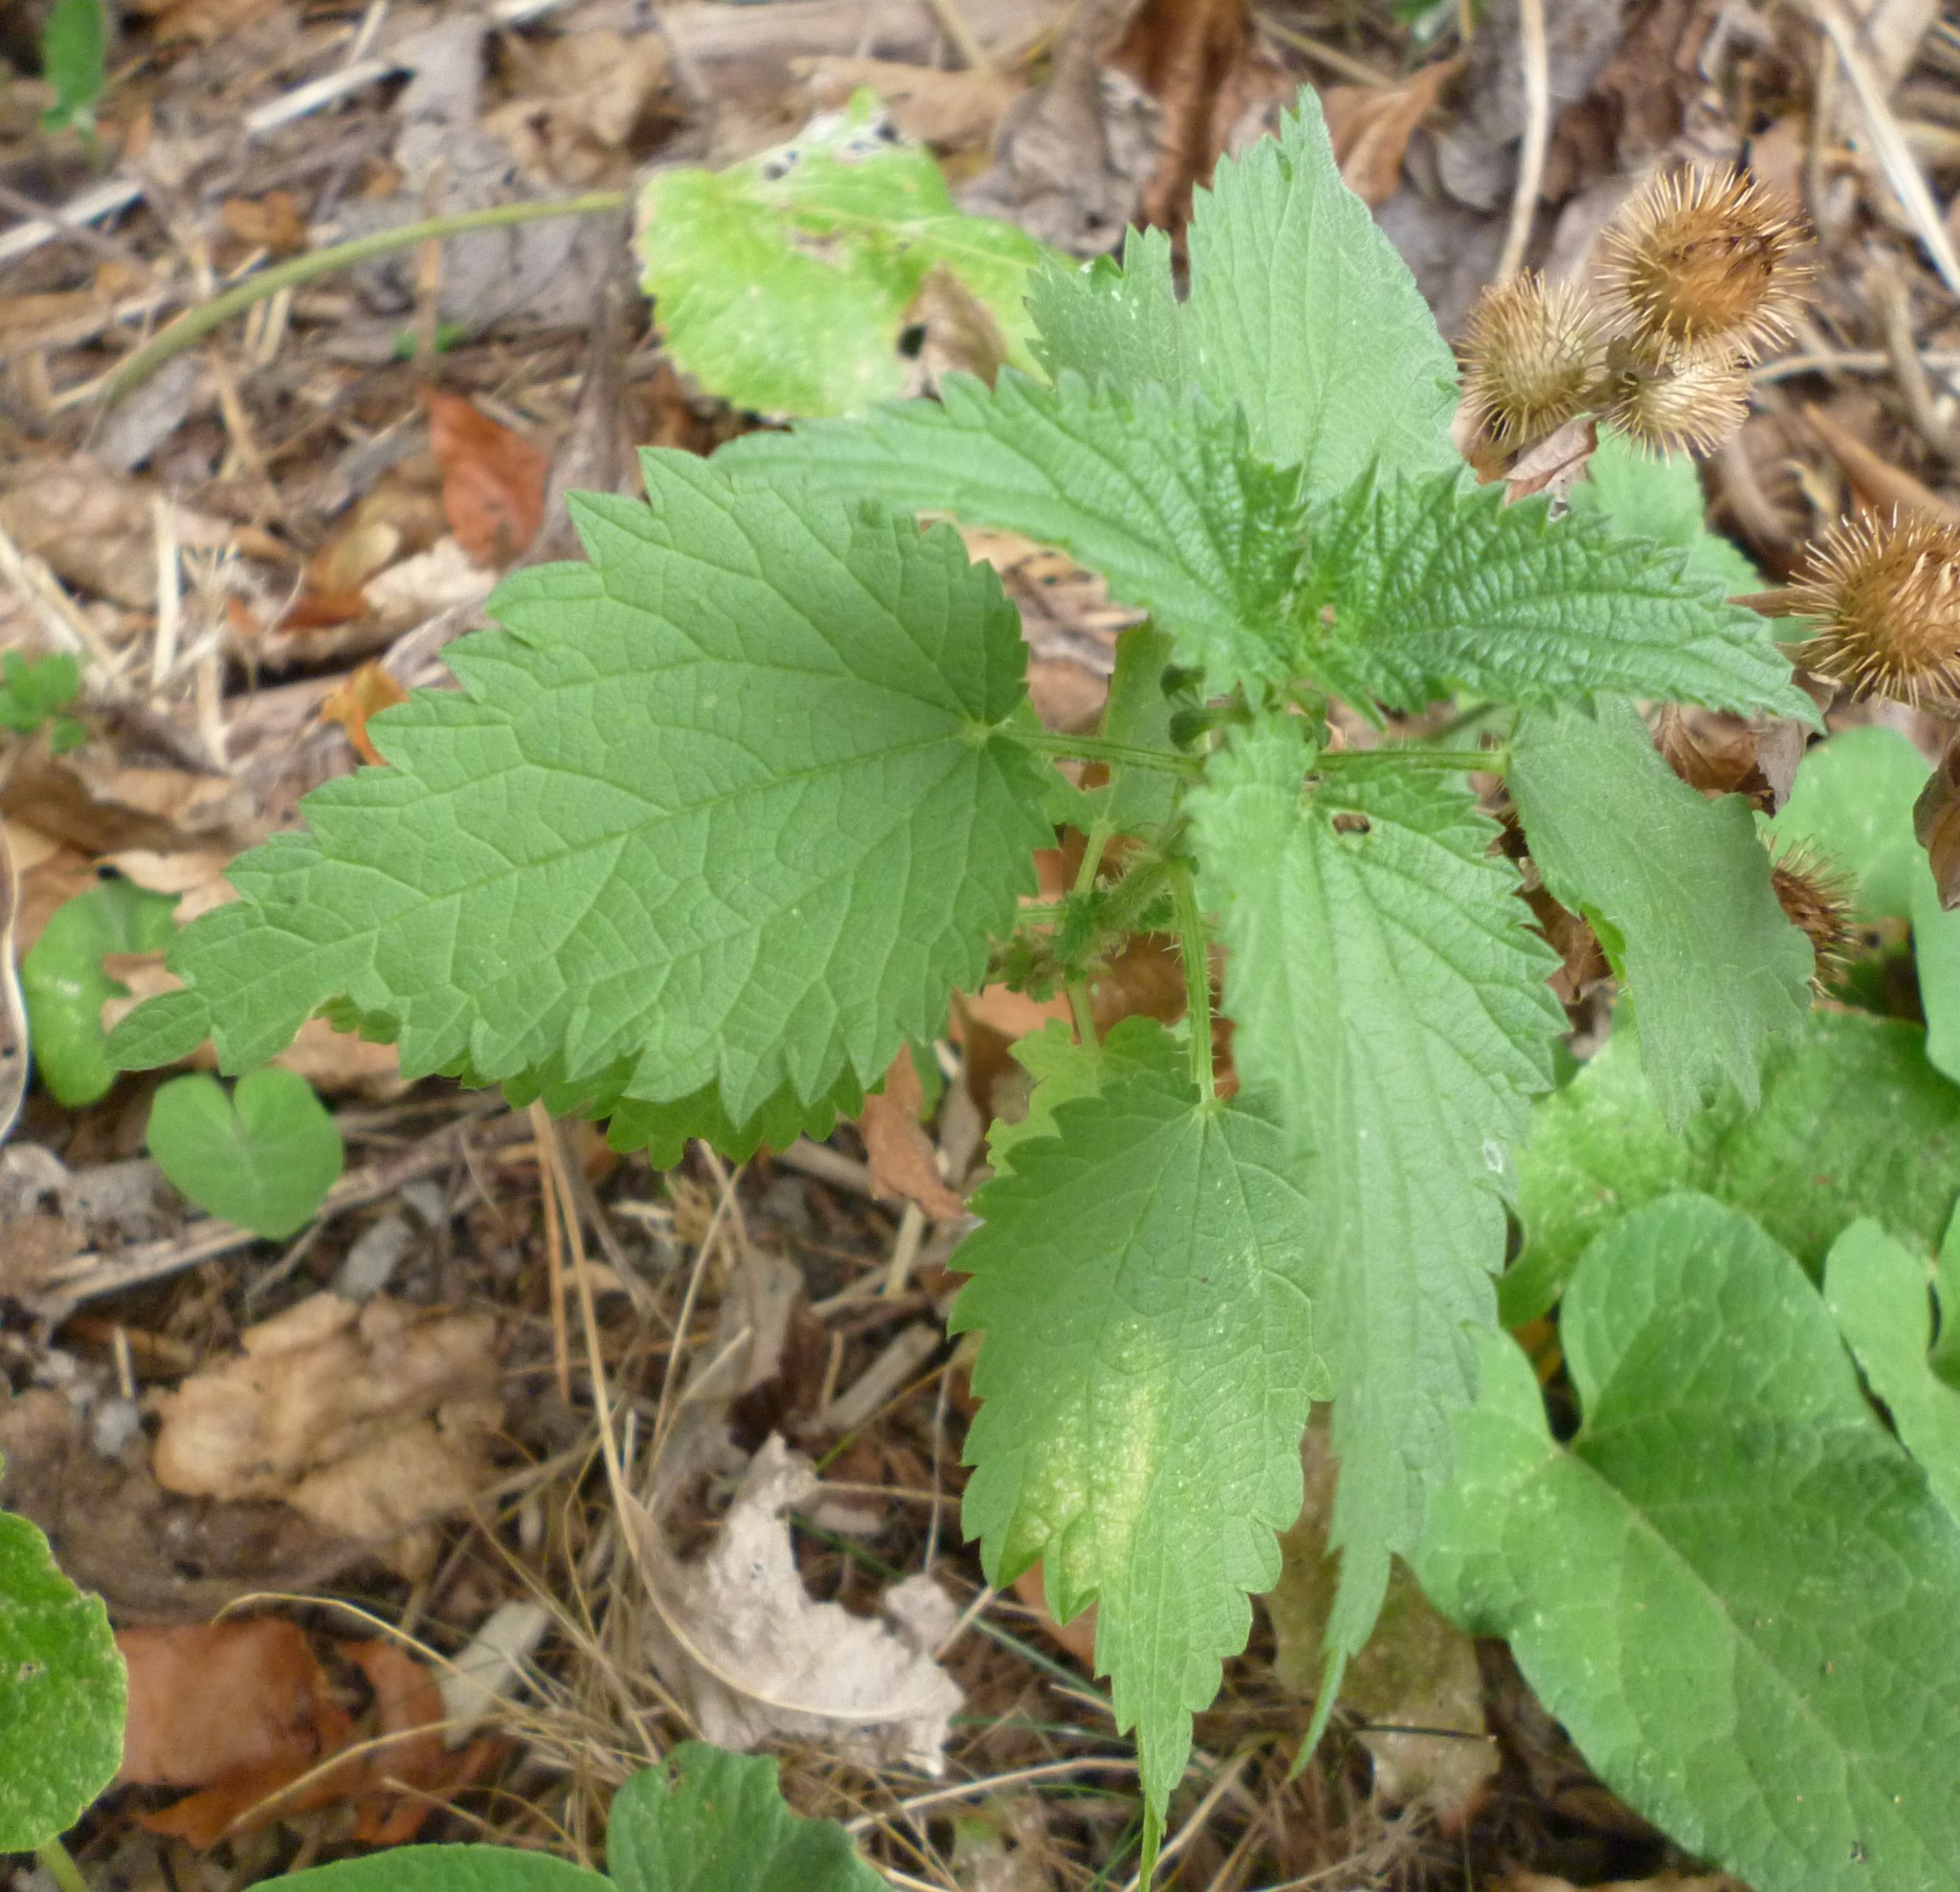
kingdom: Plantae
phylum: Tracheophyta
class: Magnoliopsida
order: Rosales
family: Urticaceae
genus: Urtica
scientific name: Urtica dioica
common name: Common nettle
